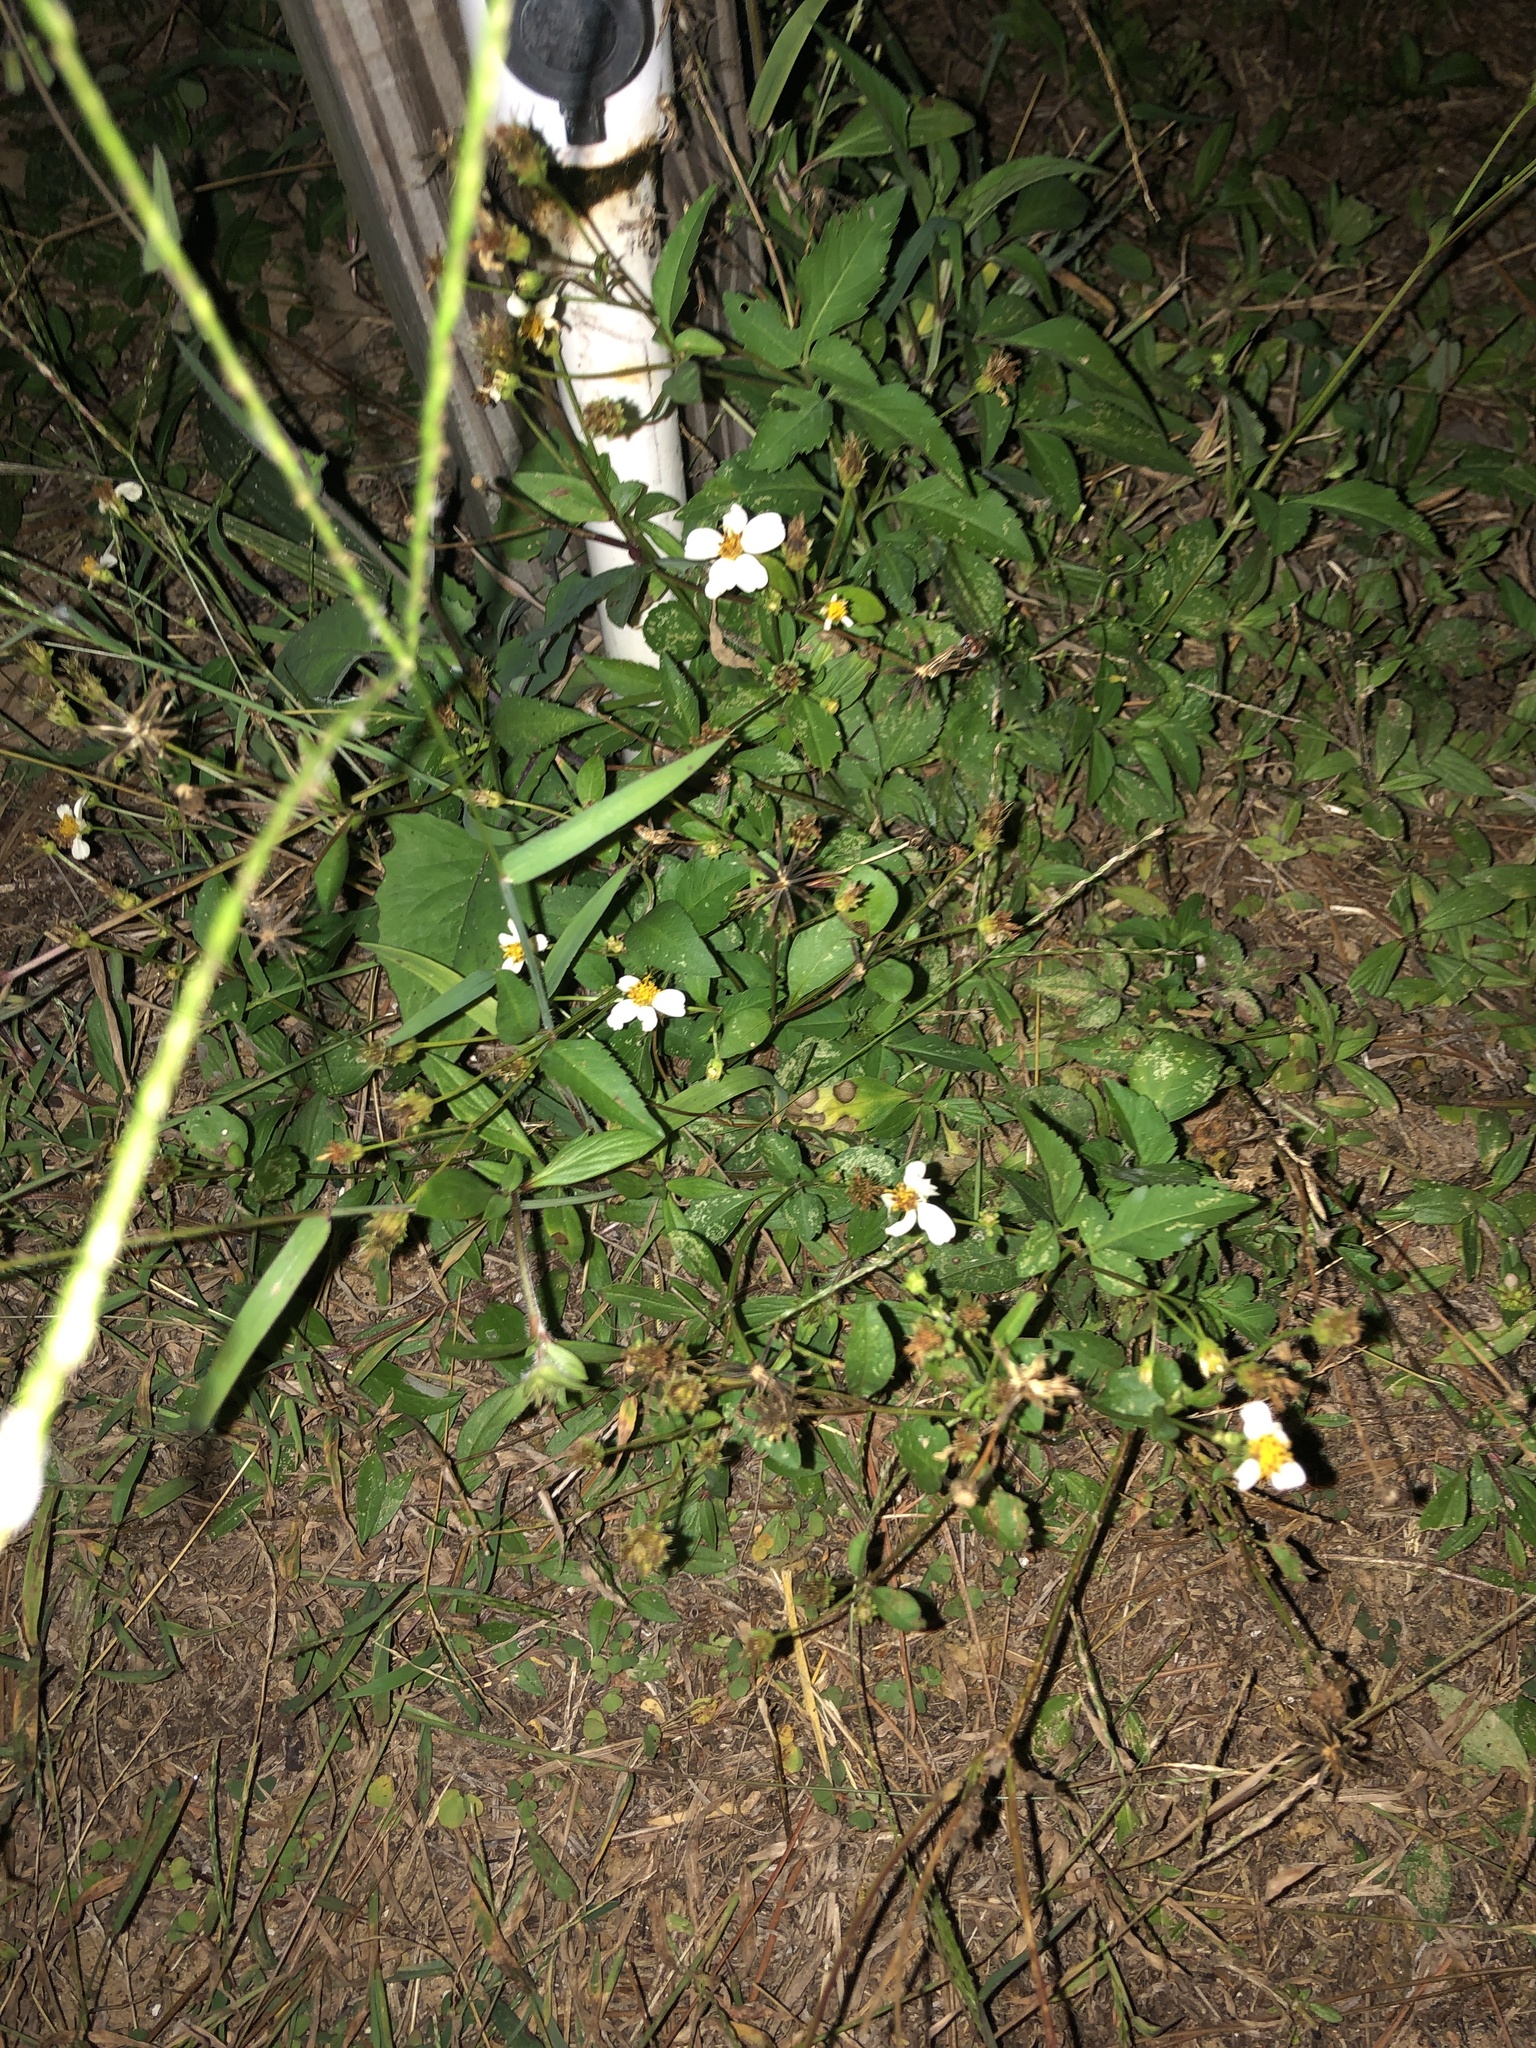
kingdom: Plantae
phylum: Tracheophyta
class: Magnoliopsida
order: Asterales
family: Asteraceae
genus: Bidens
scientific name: Bidens alba
